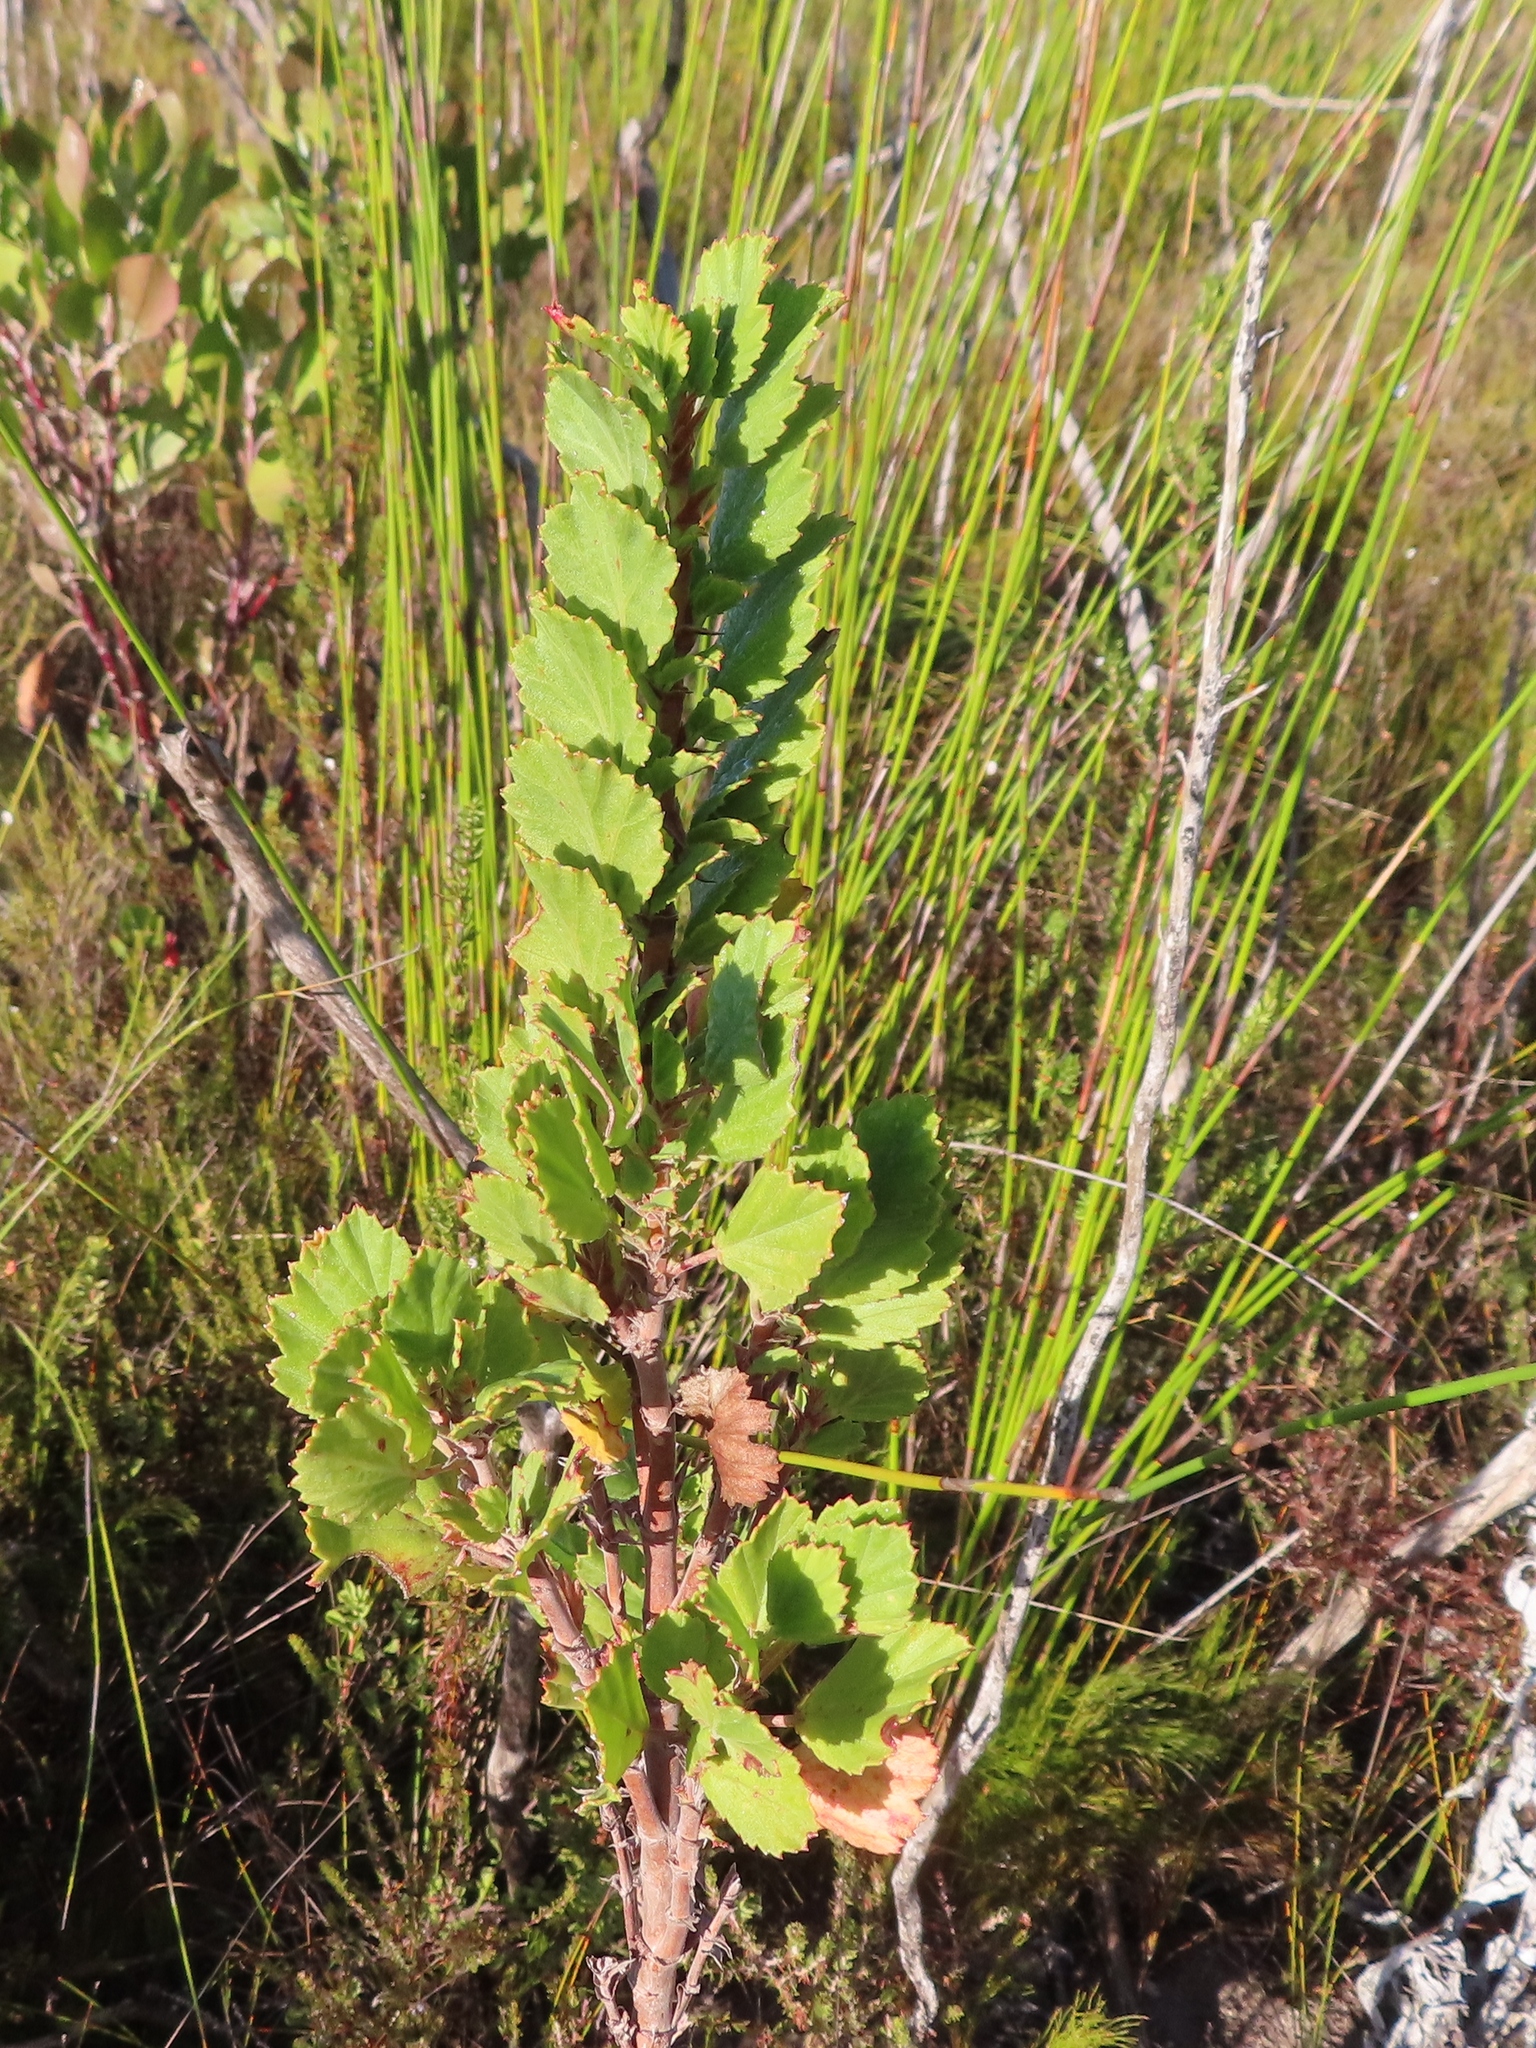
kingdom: Plantae
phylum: Tracheophyta
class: Magnoliopsida
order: Geraniales
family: Geraniaceae
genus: Pelargonium
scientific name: Pelargonium betulinum
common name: Birch-leaf pelargonium
